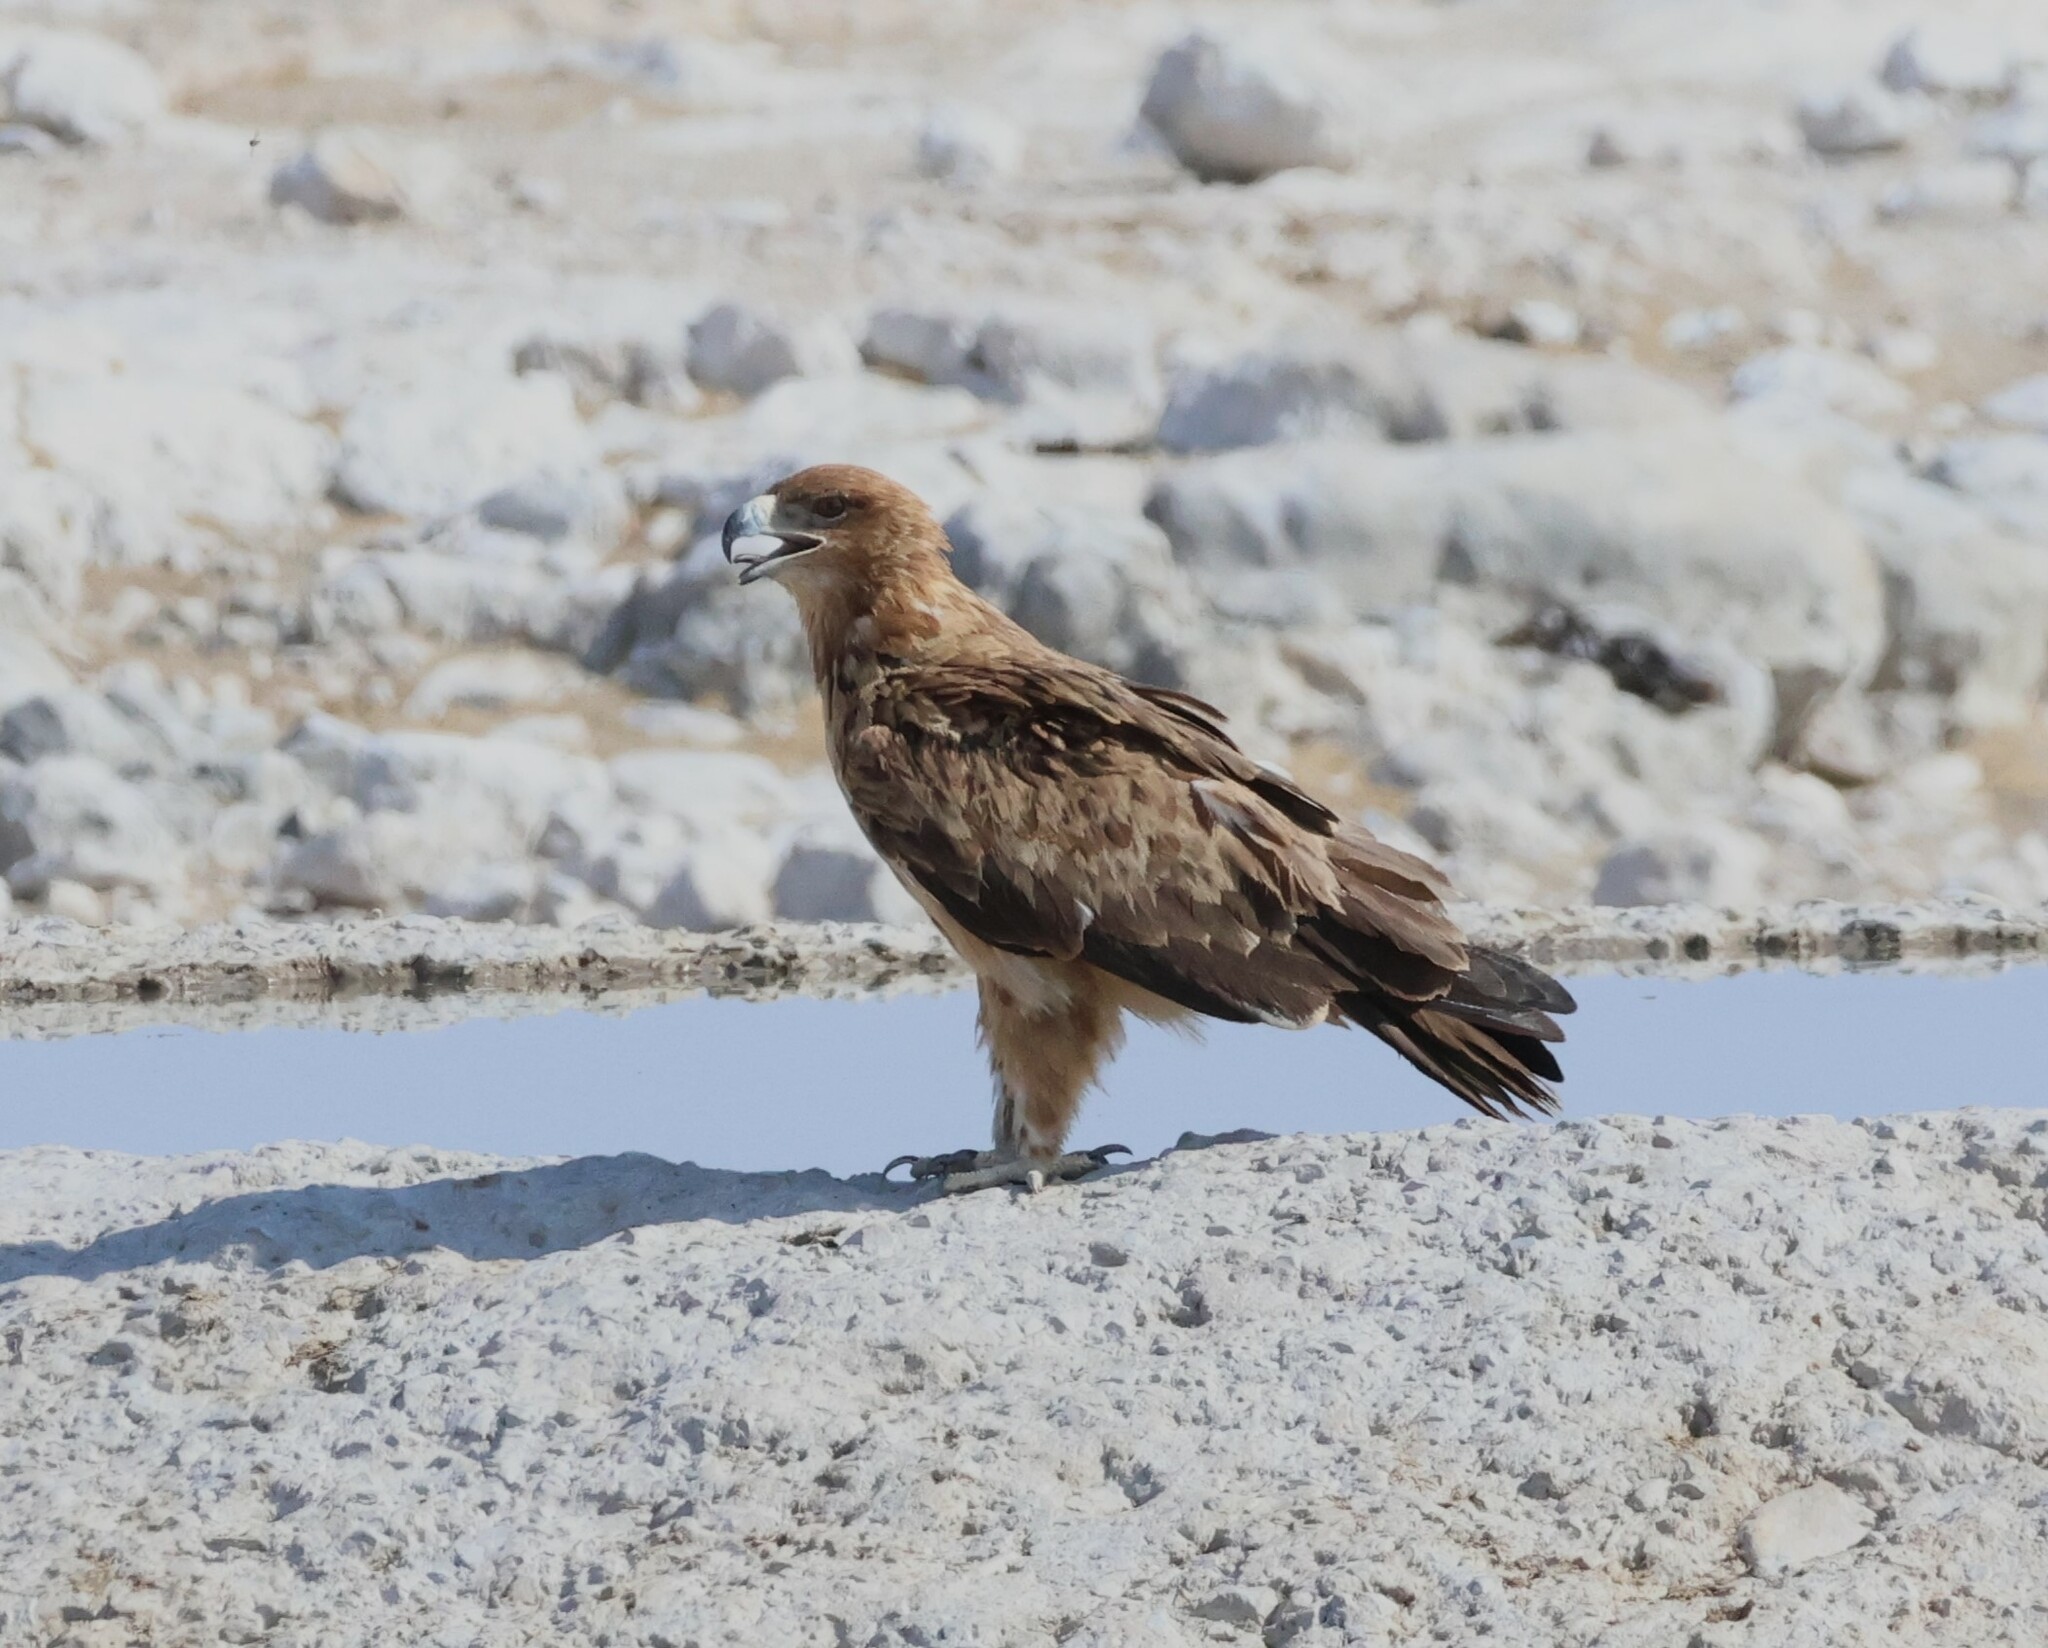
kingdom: Animalia
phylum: Chordata
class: Aves
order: Accipitriformes
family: Accipitridae
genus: Aquila
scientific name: Aquila rapax
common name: Tawny eagle
